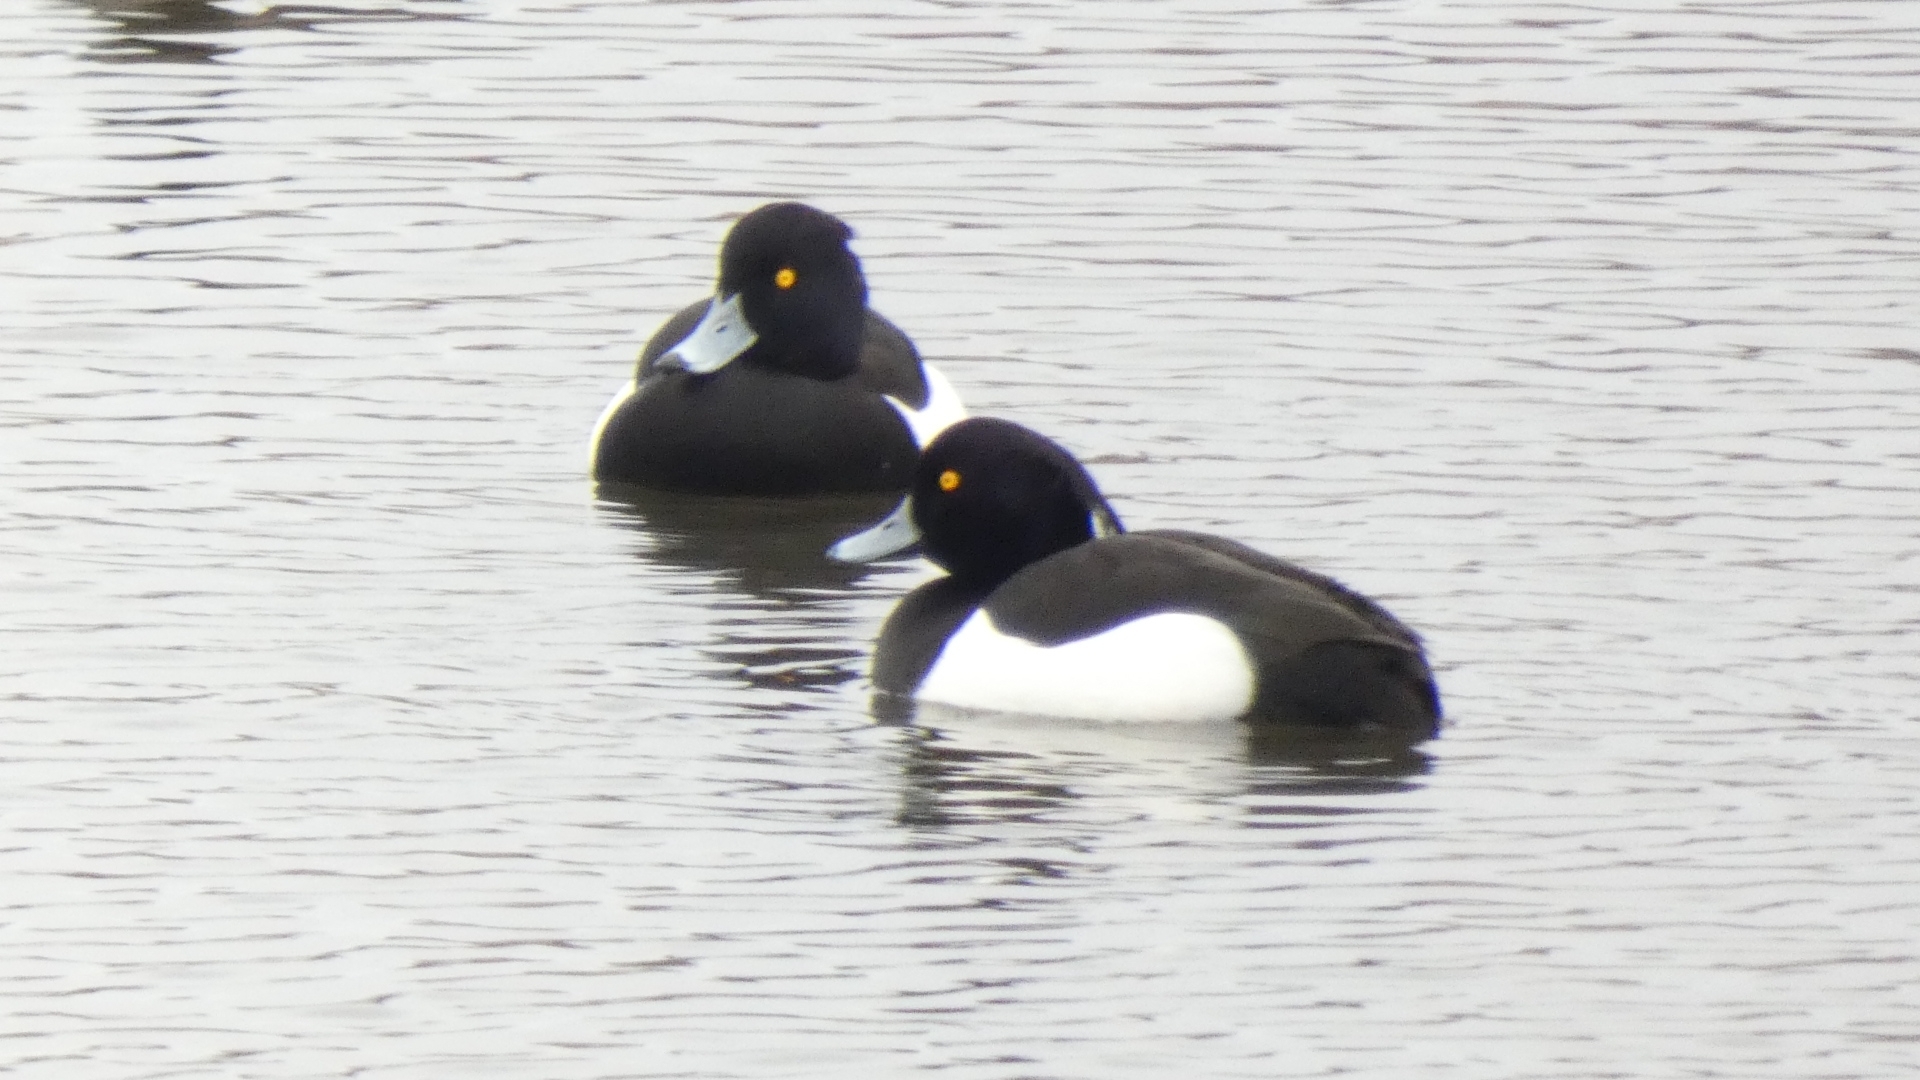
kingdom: Animalia
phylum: Chordata
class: Aves
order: Anseriformes
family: Anatidae
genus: Aythya
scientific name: Aythya fuligula
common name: Tufted duck
